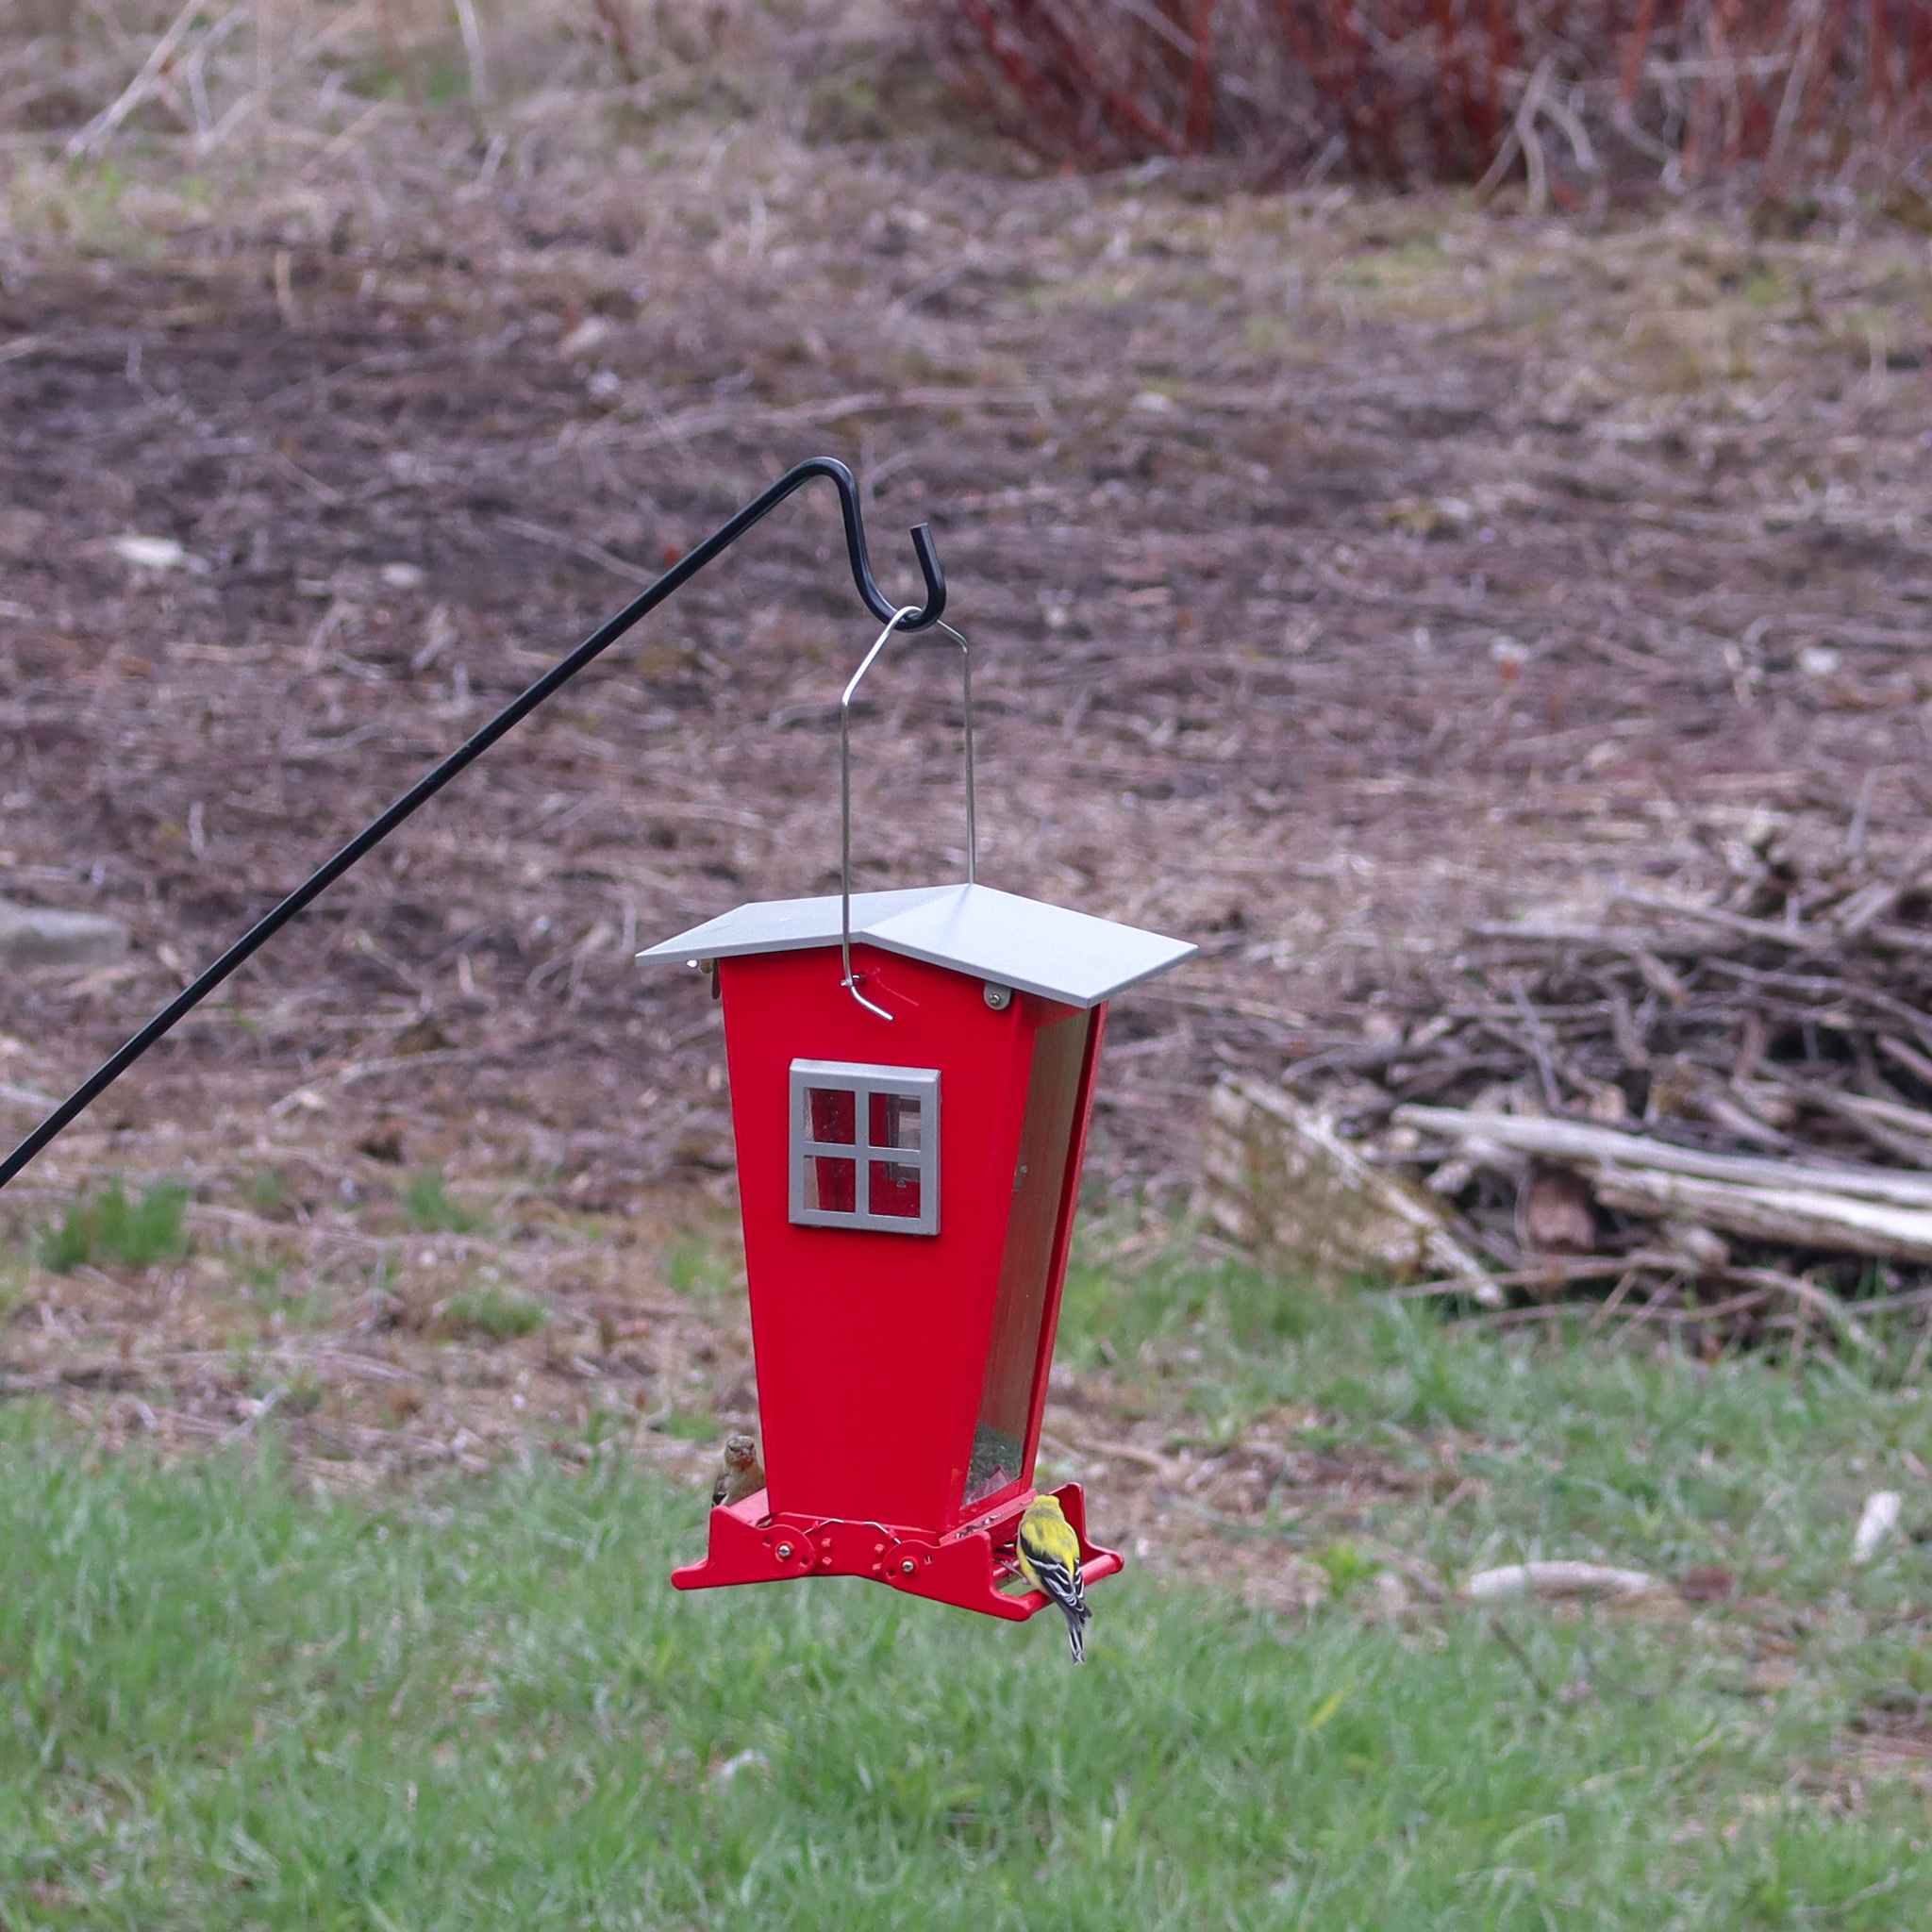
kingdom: Animalia
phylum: Chordata
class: Aves
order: Passeriformes
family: Fringillidae
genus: Spinus
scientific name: Spinus tristis
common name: American goldfinch
